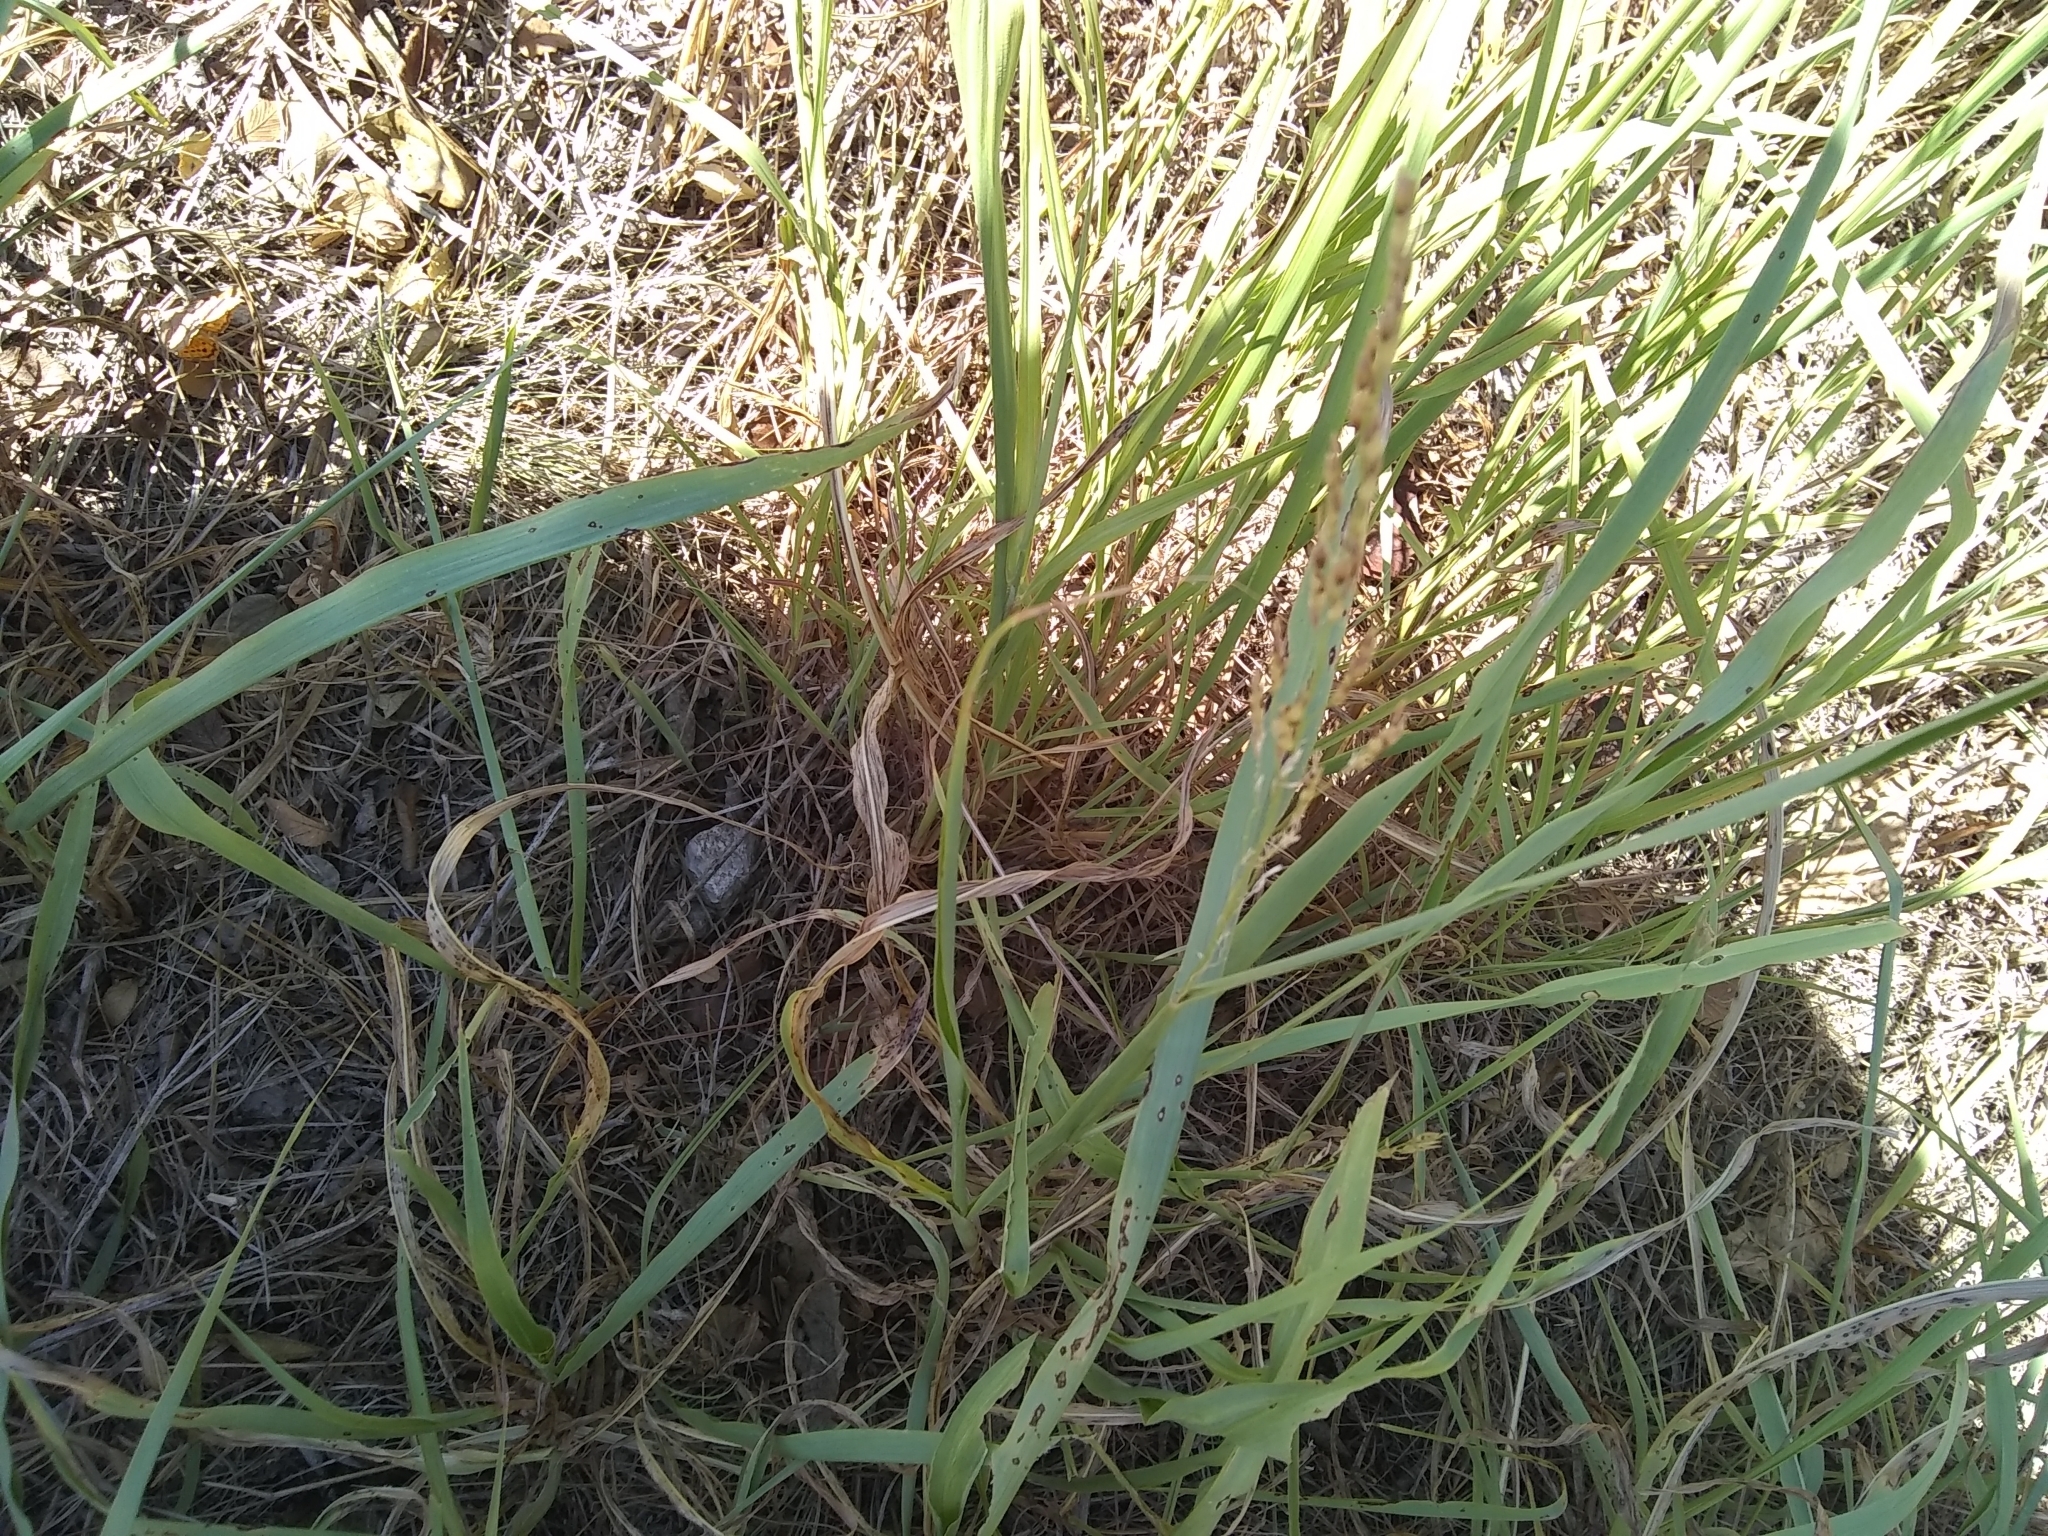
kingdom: Plantae
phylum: Tracheophyta
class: Liliopsida
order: Poales
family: Poaceae
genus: Sorghum
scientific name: Sorghum halepense
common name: Johnson-grass
